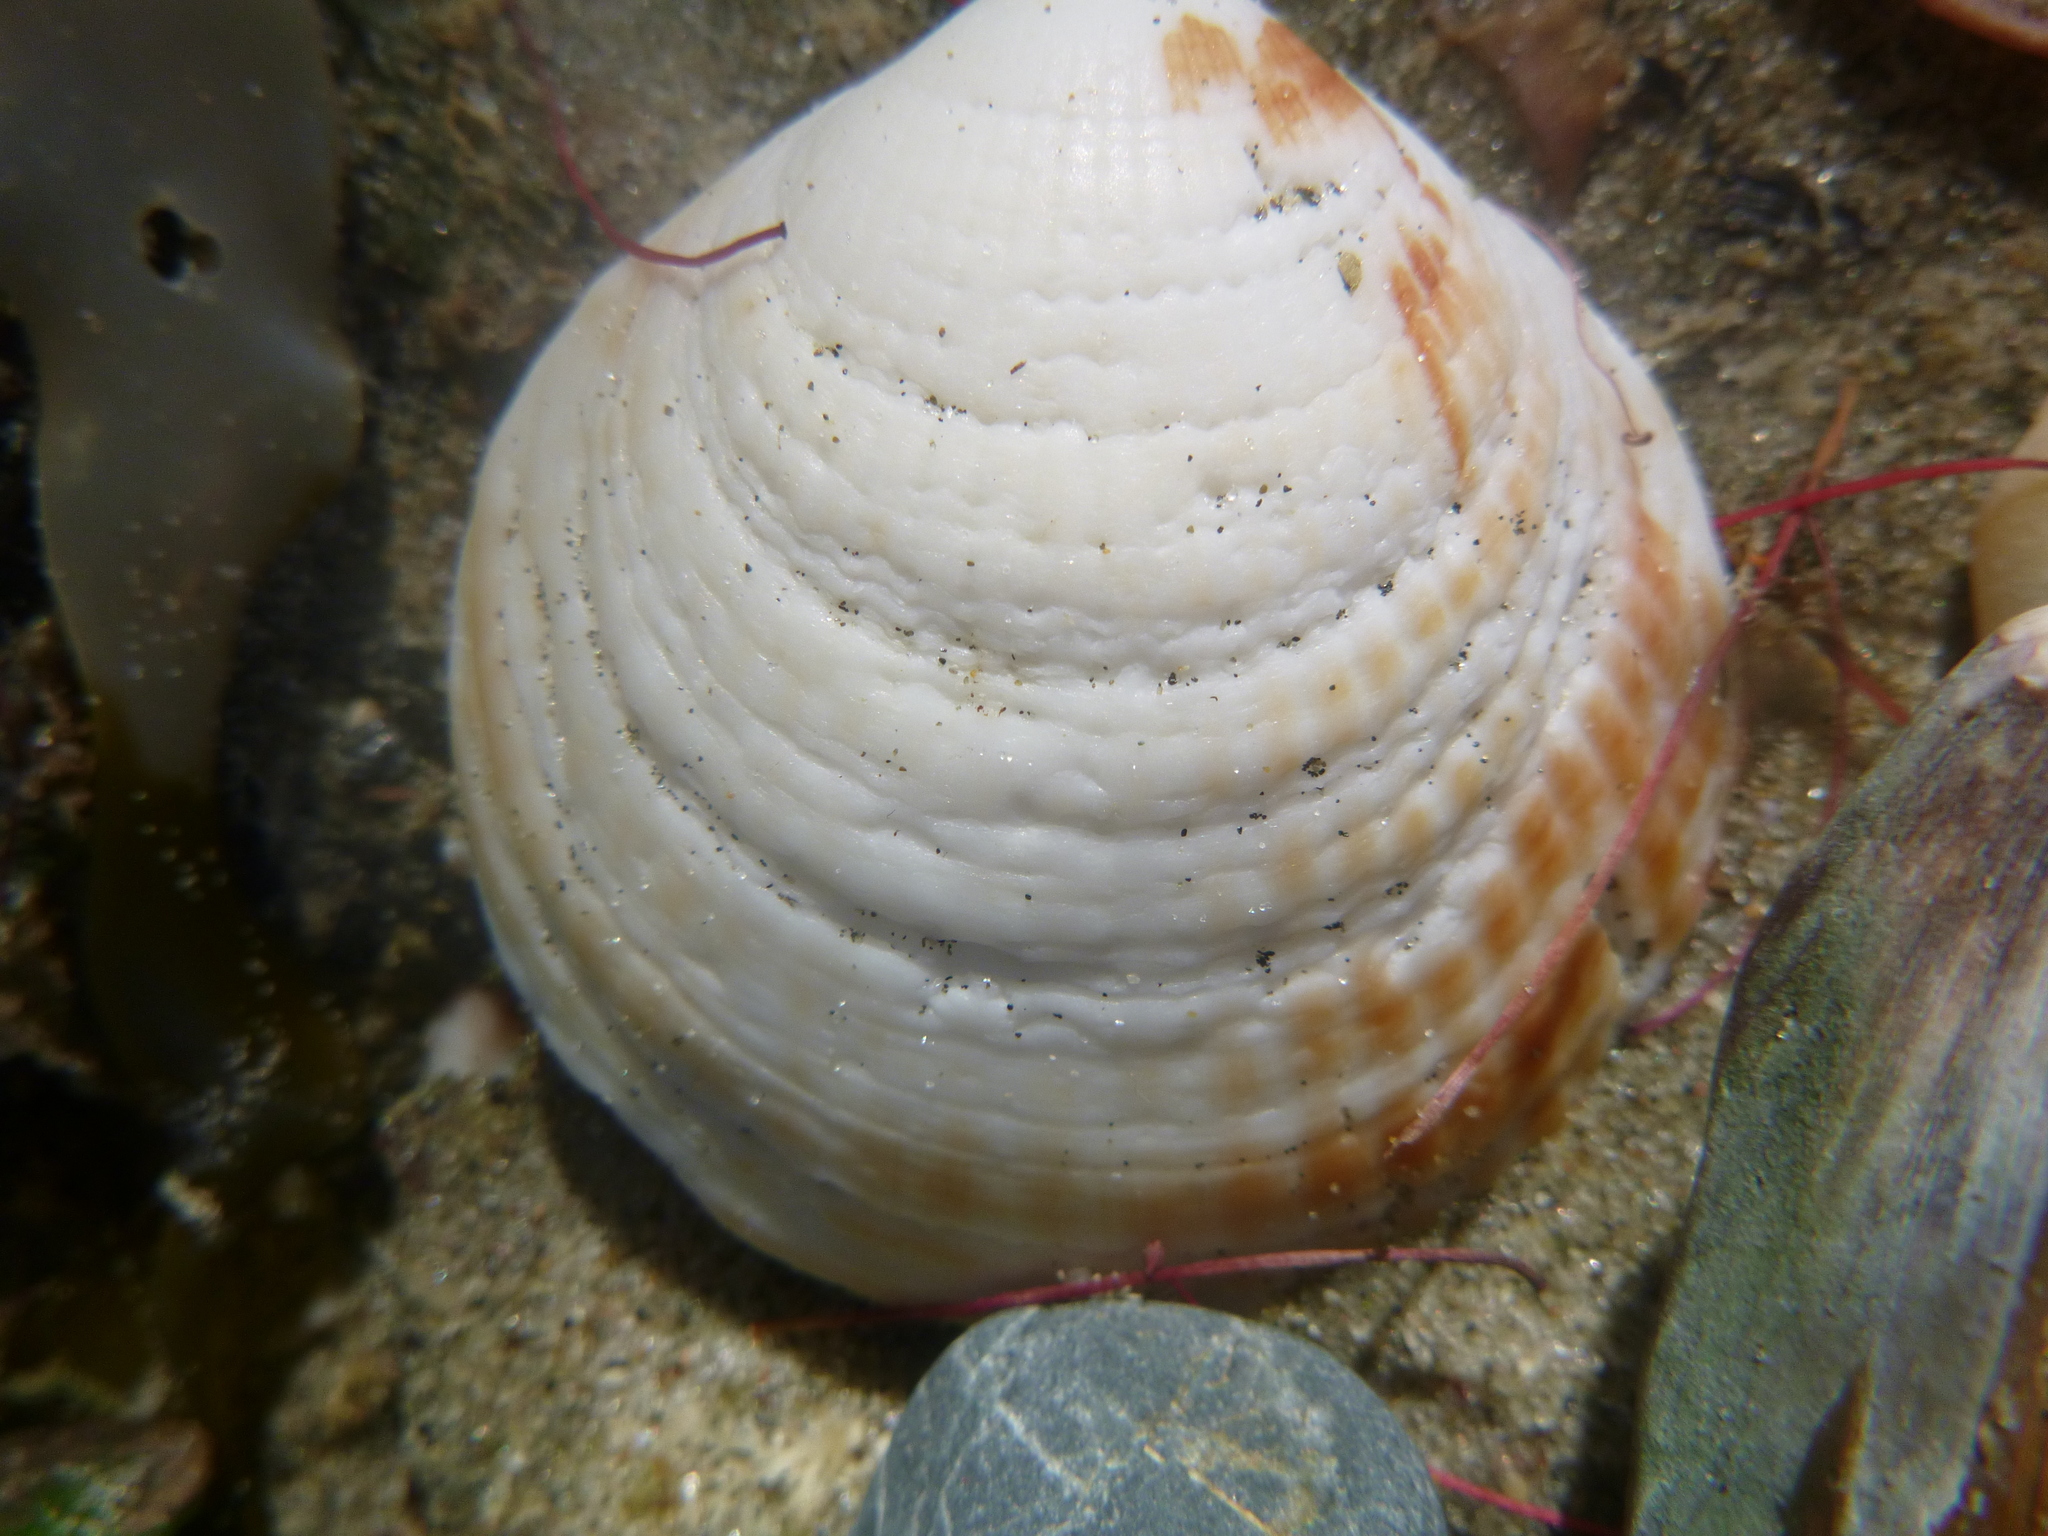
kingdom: Animalia
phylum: Mollusca
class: Bivalvia
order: Arcida
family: Glycymerididae
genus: Tucetona
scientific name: Tucetona laticostata
